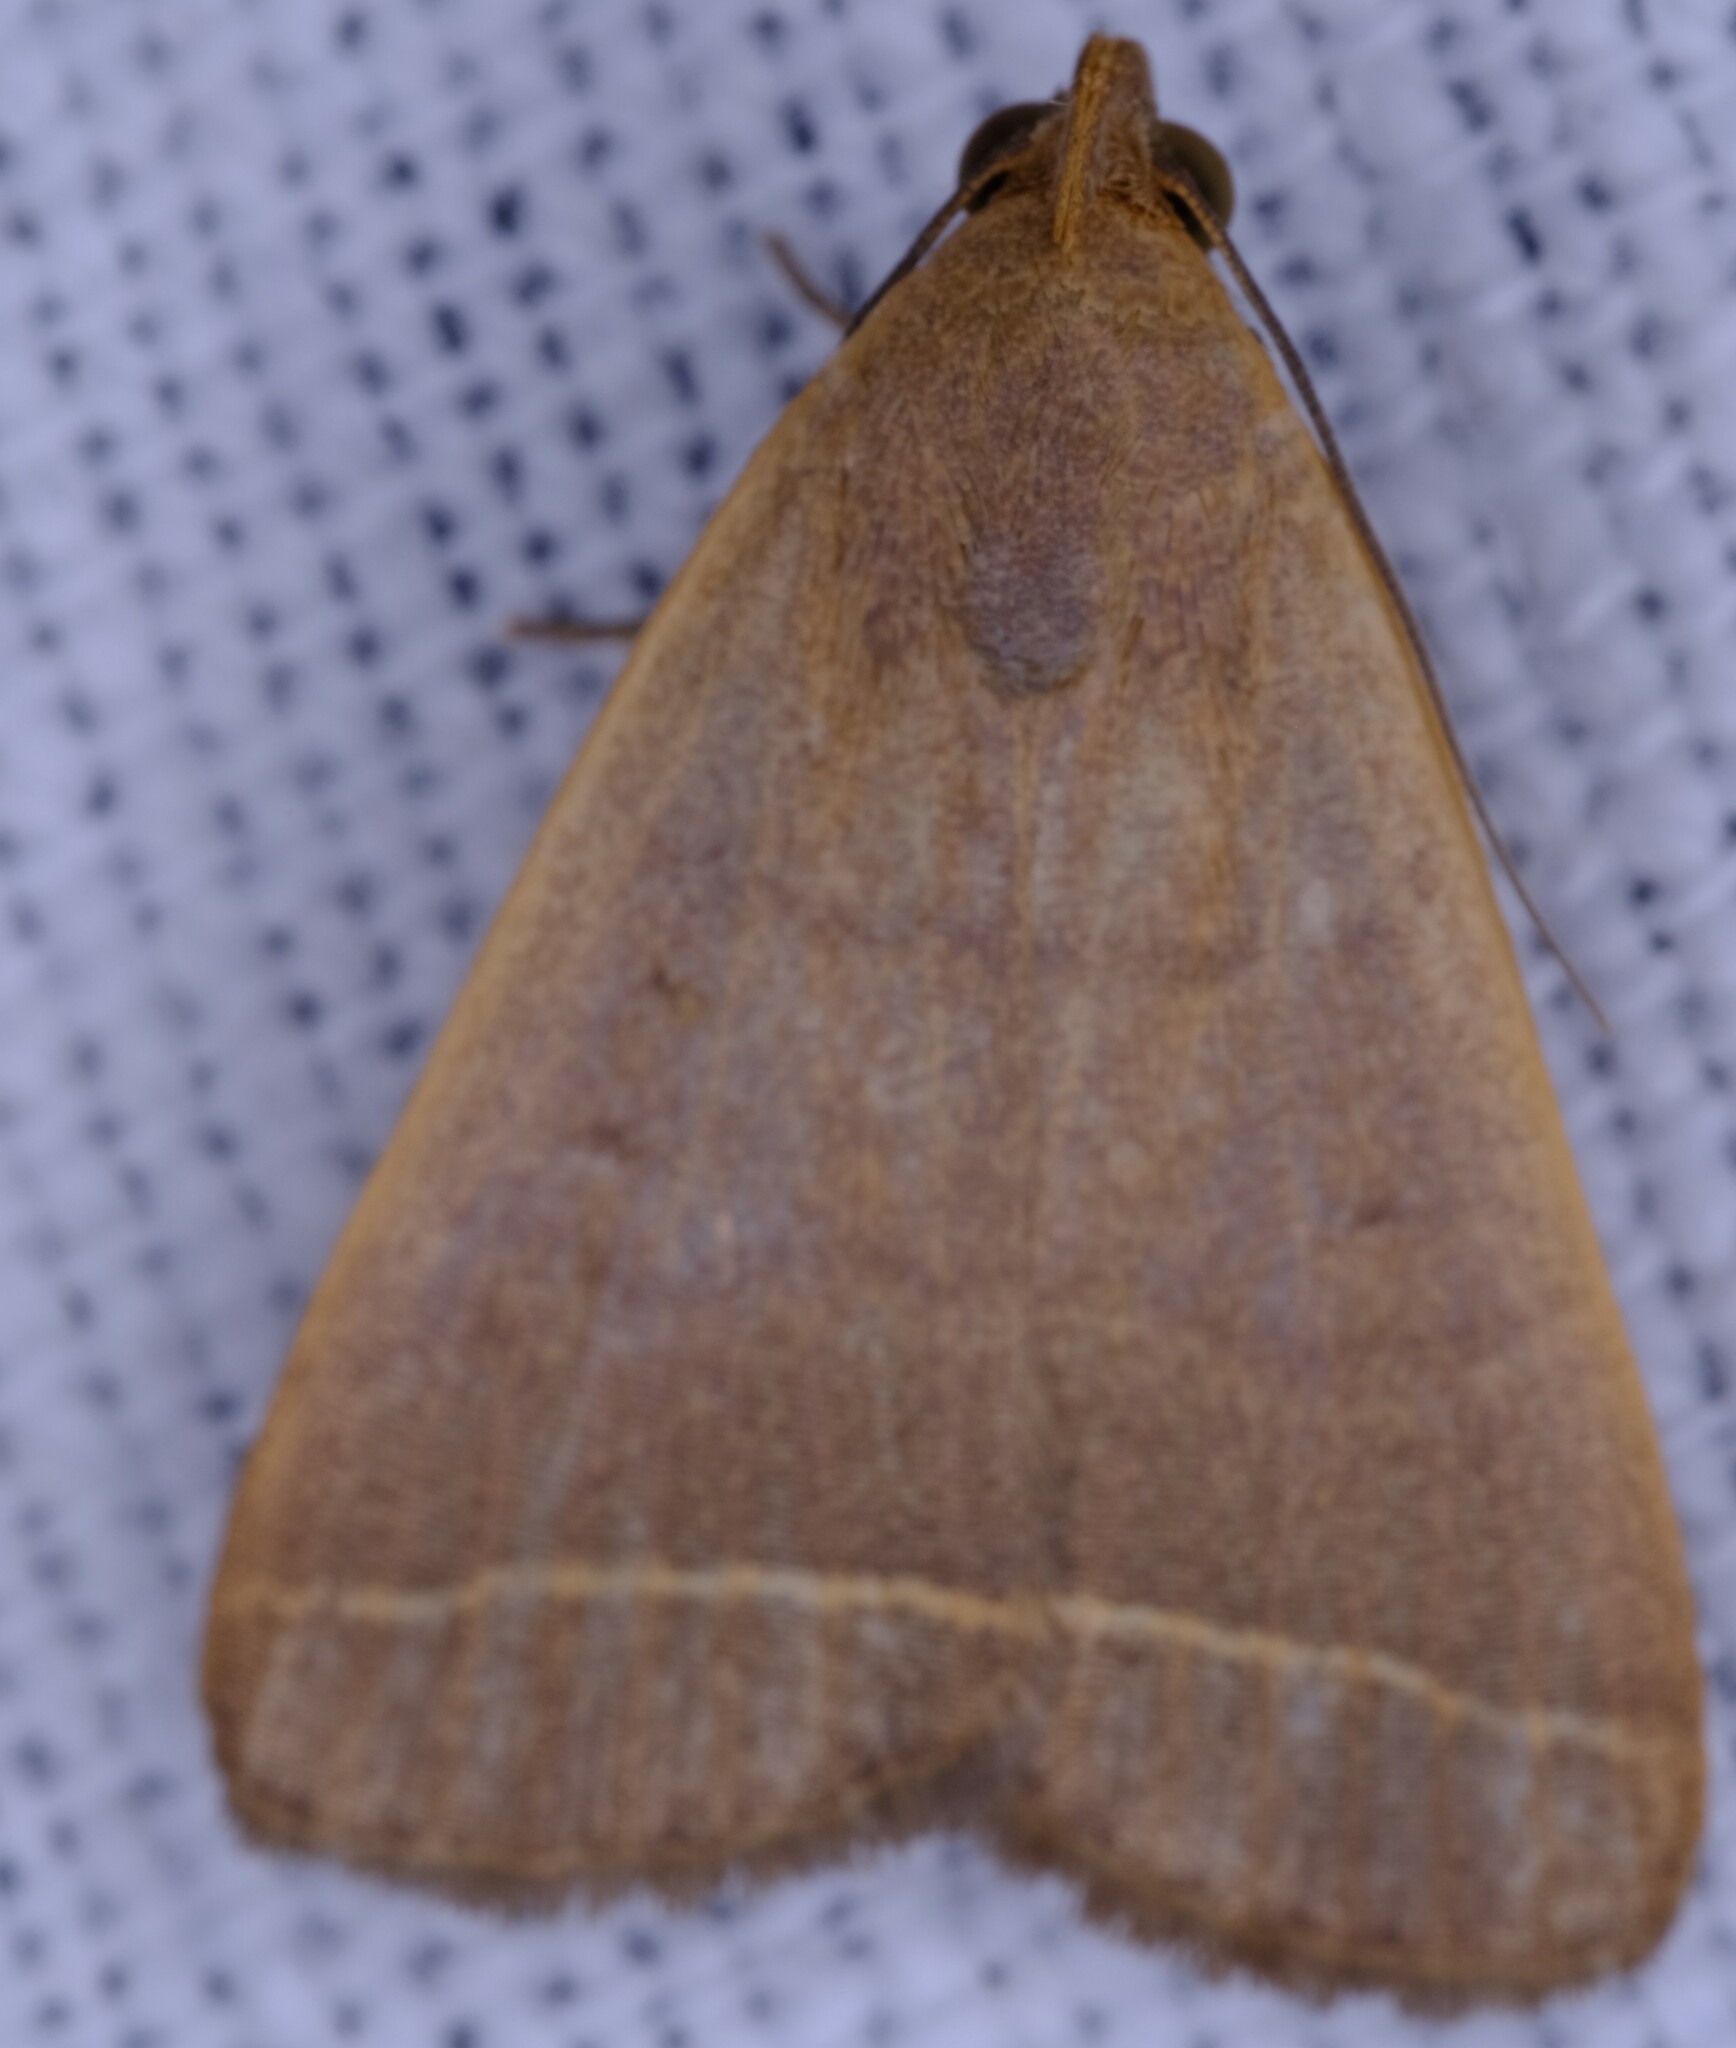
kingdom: Animalia
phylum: Arthropoda
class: Insecta
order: Lepidoptera
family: Erebidae
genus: Simplicia
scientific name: Simplicia cornicalis
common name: Tiki hut litter moth
